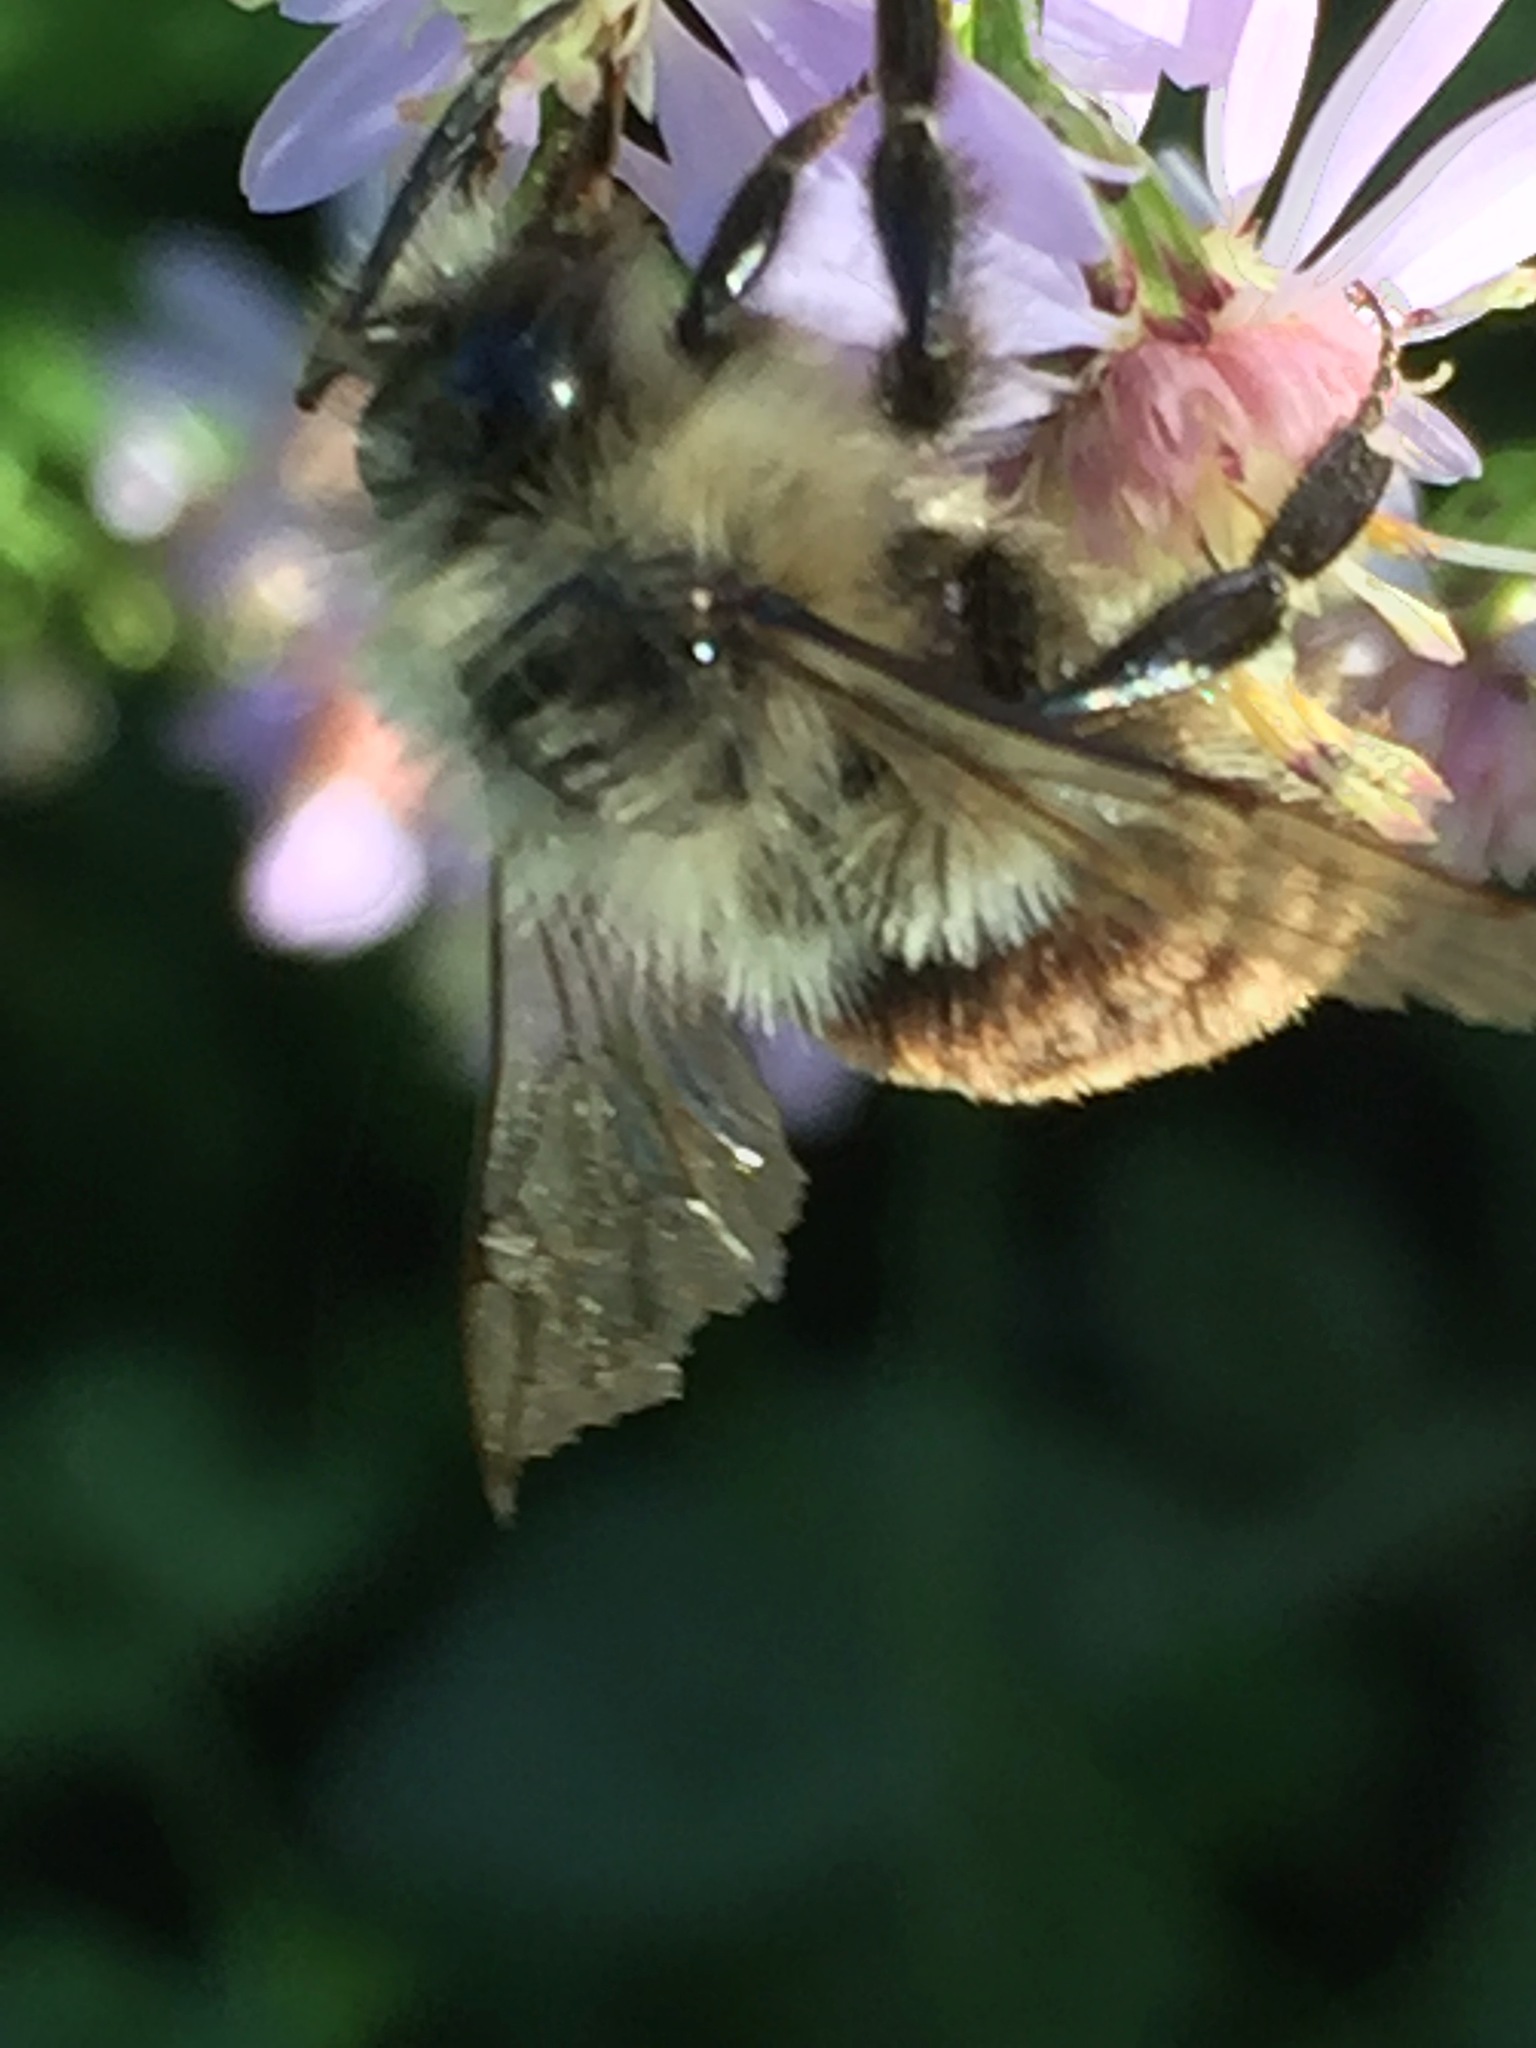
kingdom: Animalia
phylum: Arthropoda
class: Insecta
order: Hymenoptera
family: Apidae
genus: Bombus
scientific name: Bombus impatiens
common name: Common eastern bumble bee
